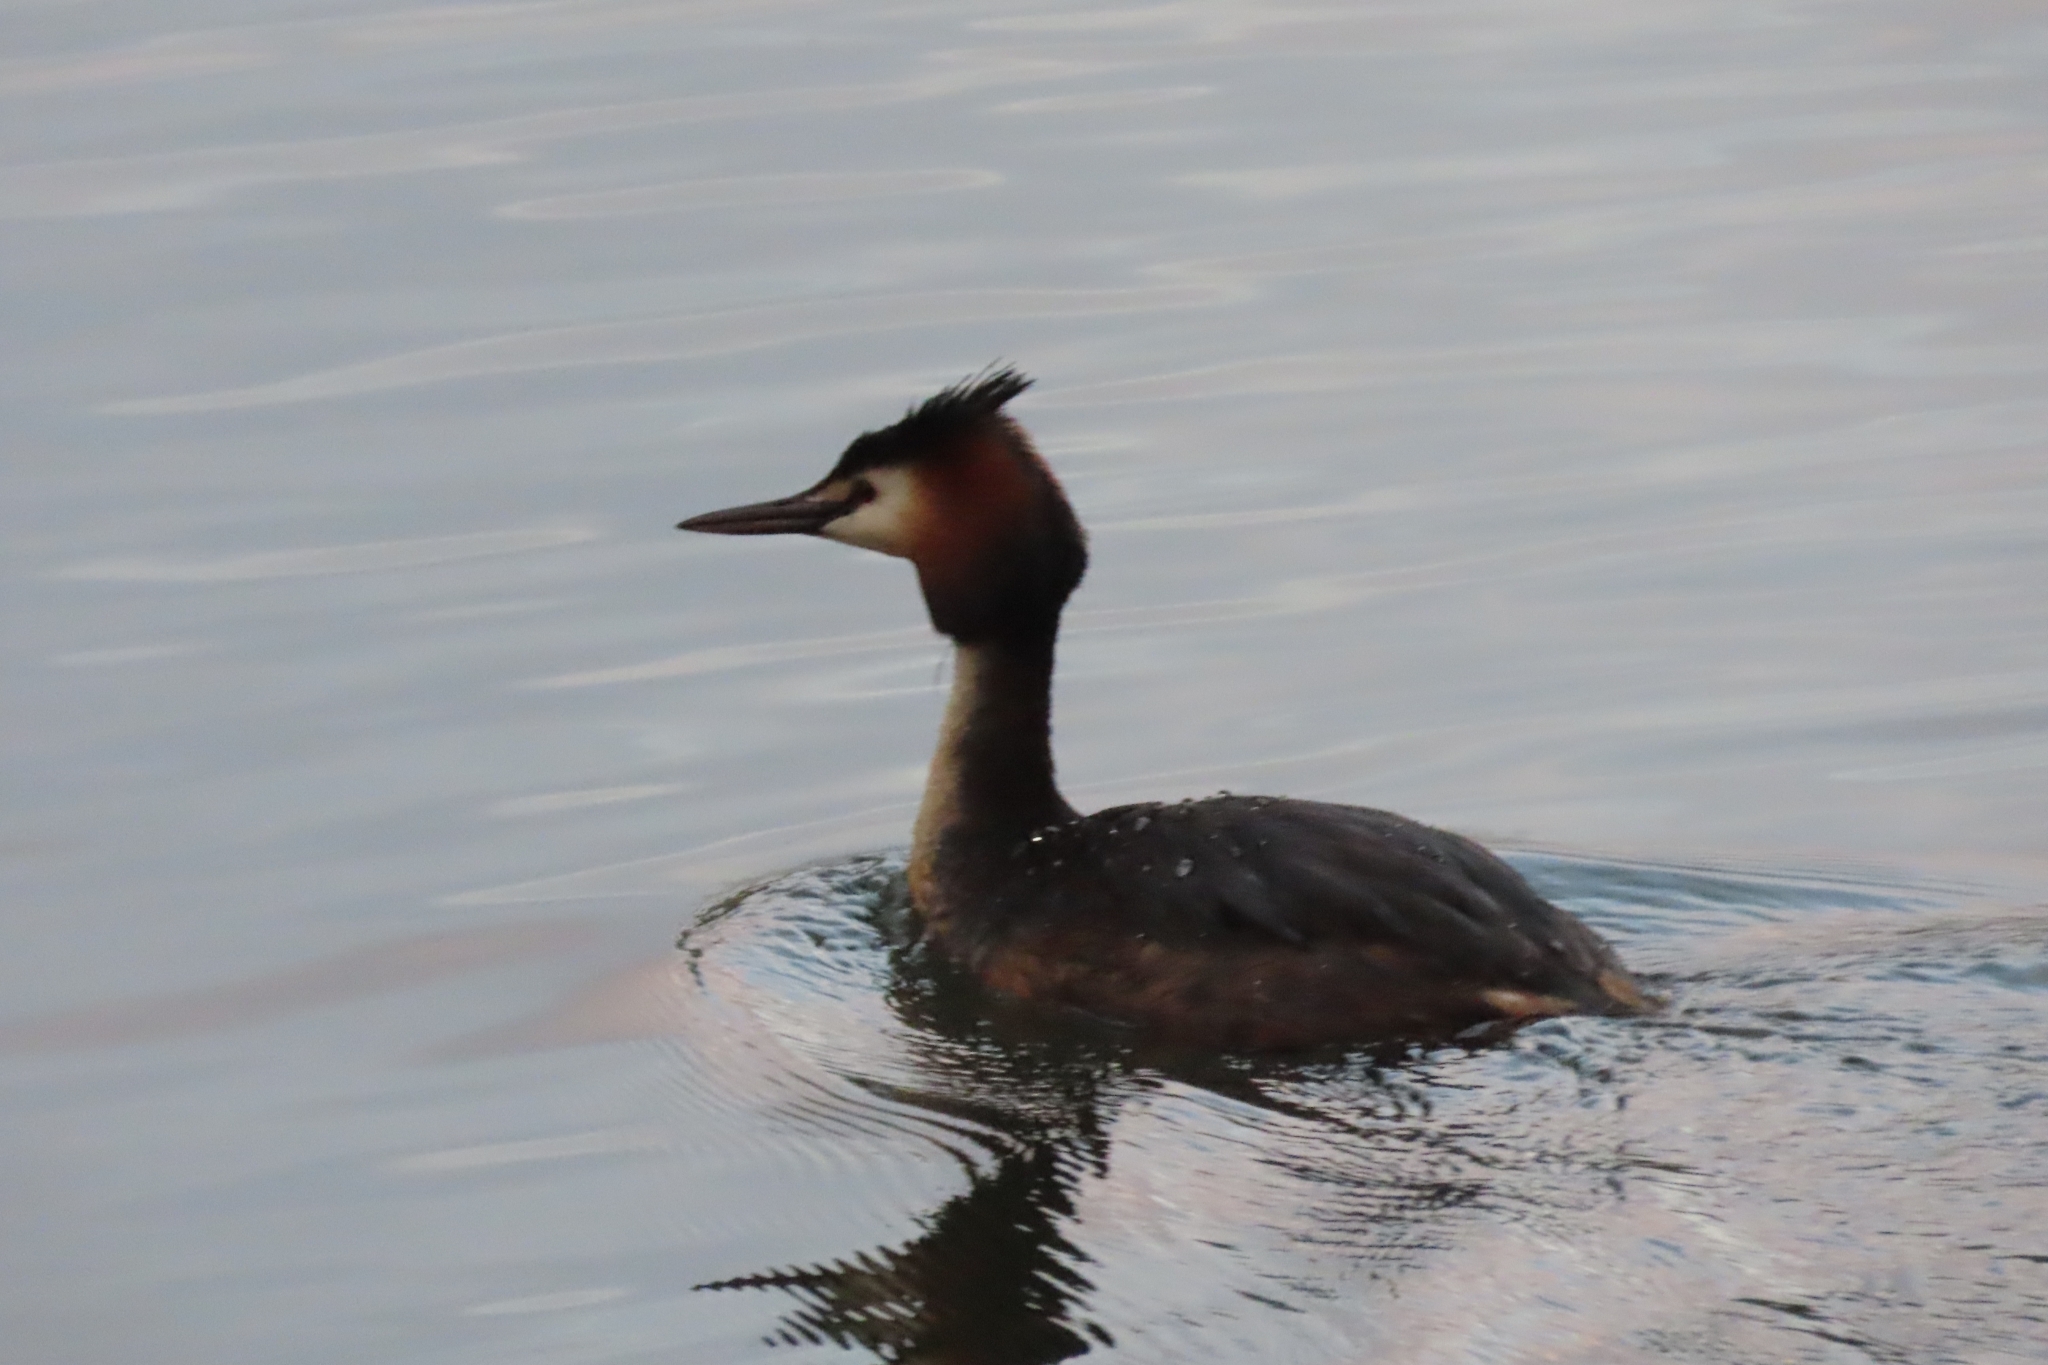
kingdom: Animalia
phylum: Chordata
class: Aves
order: Podicipediformes
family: Podicipedidae
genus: Podiceps
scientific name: Podiceps cristatus
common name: Great crested grebe
